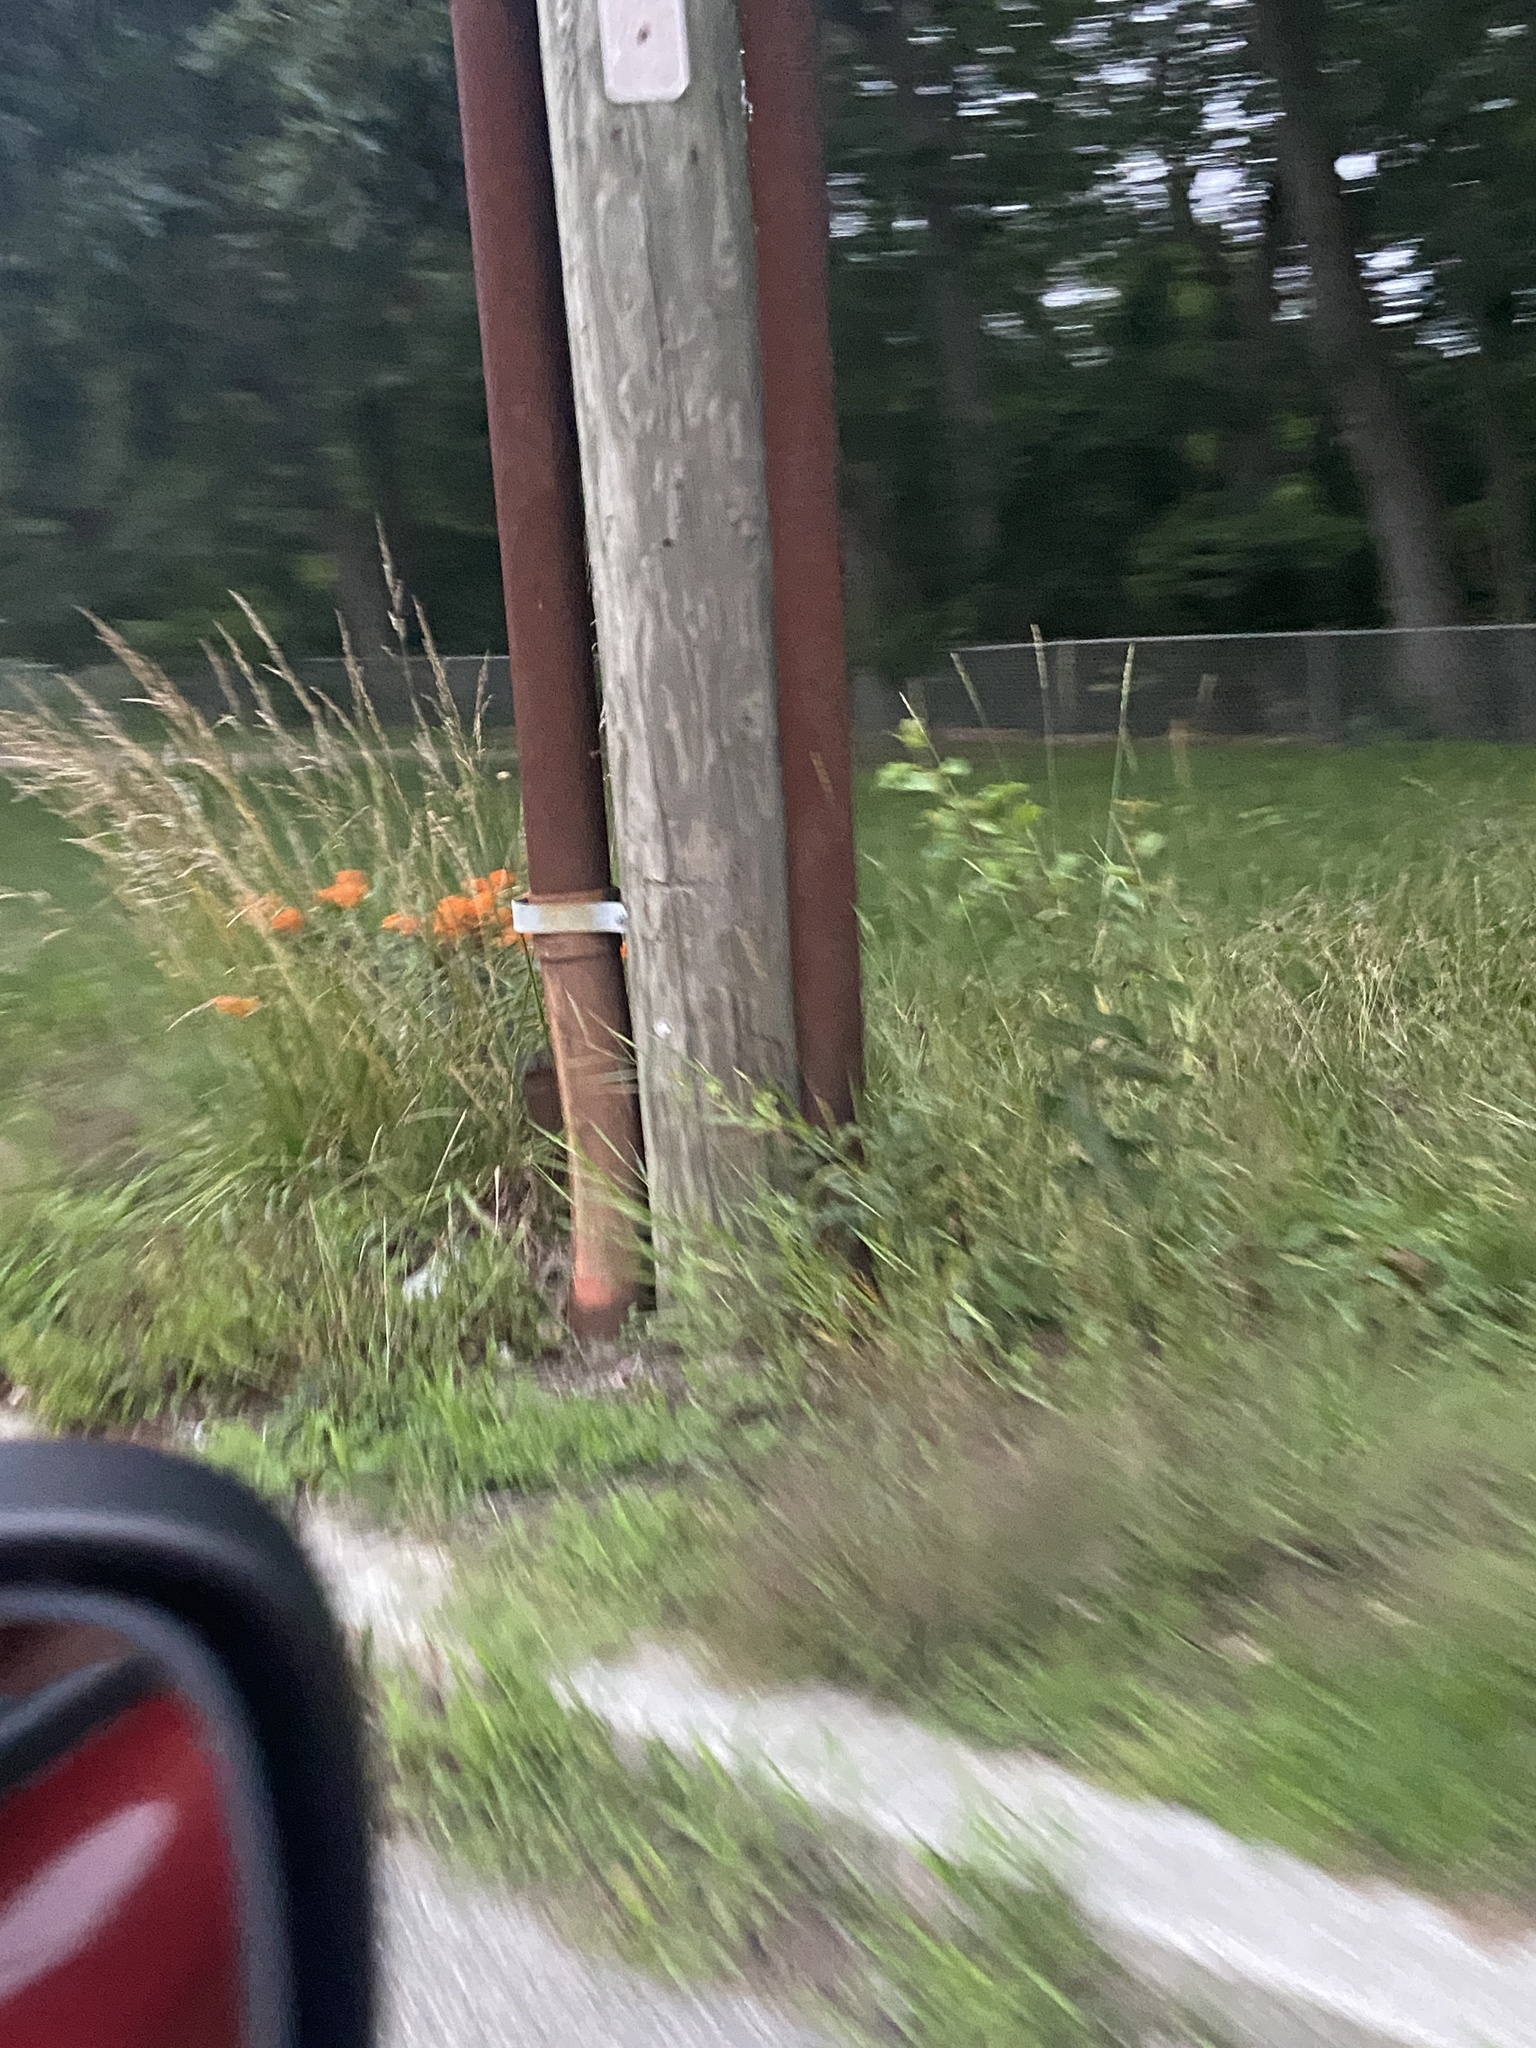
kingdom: Plantae
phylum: Tracheophyta
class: Magnoliopsida
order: Gentianales
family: Apocynaceae
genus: Asclepias
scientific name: Asclepias tuberosa
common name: Butterfly milkweed
